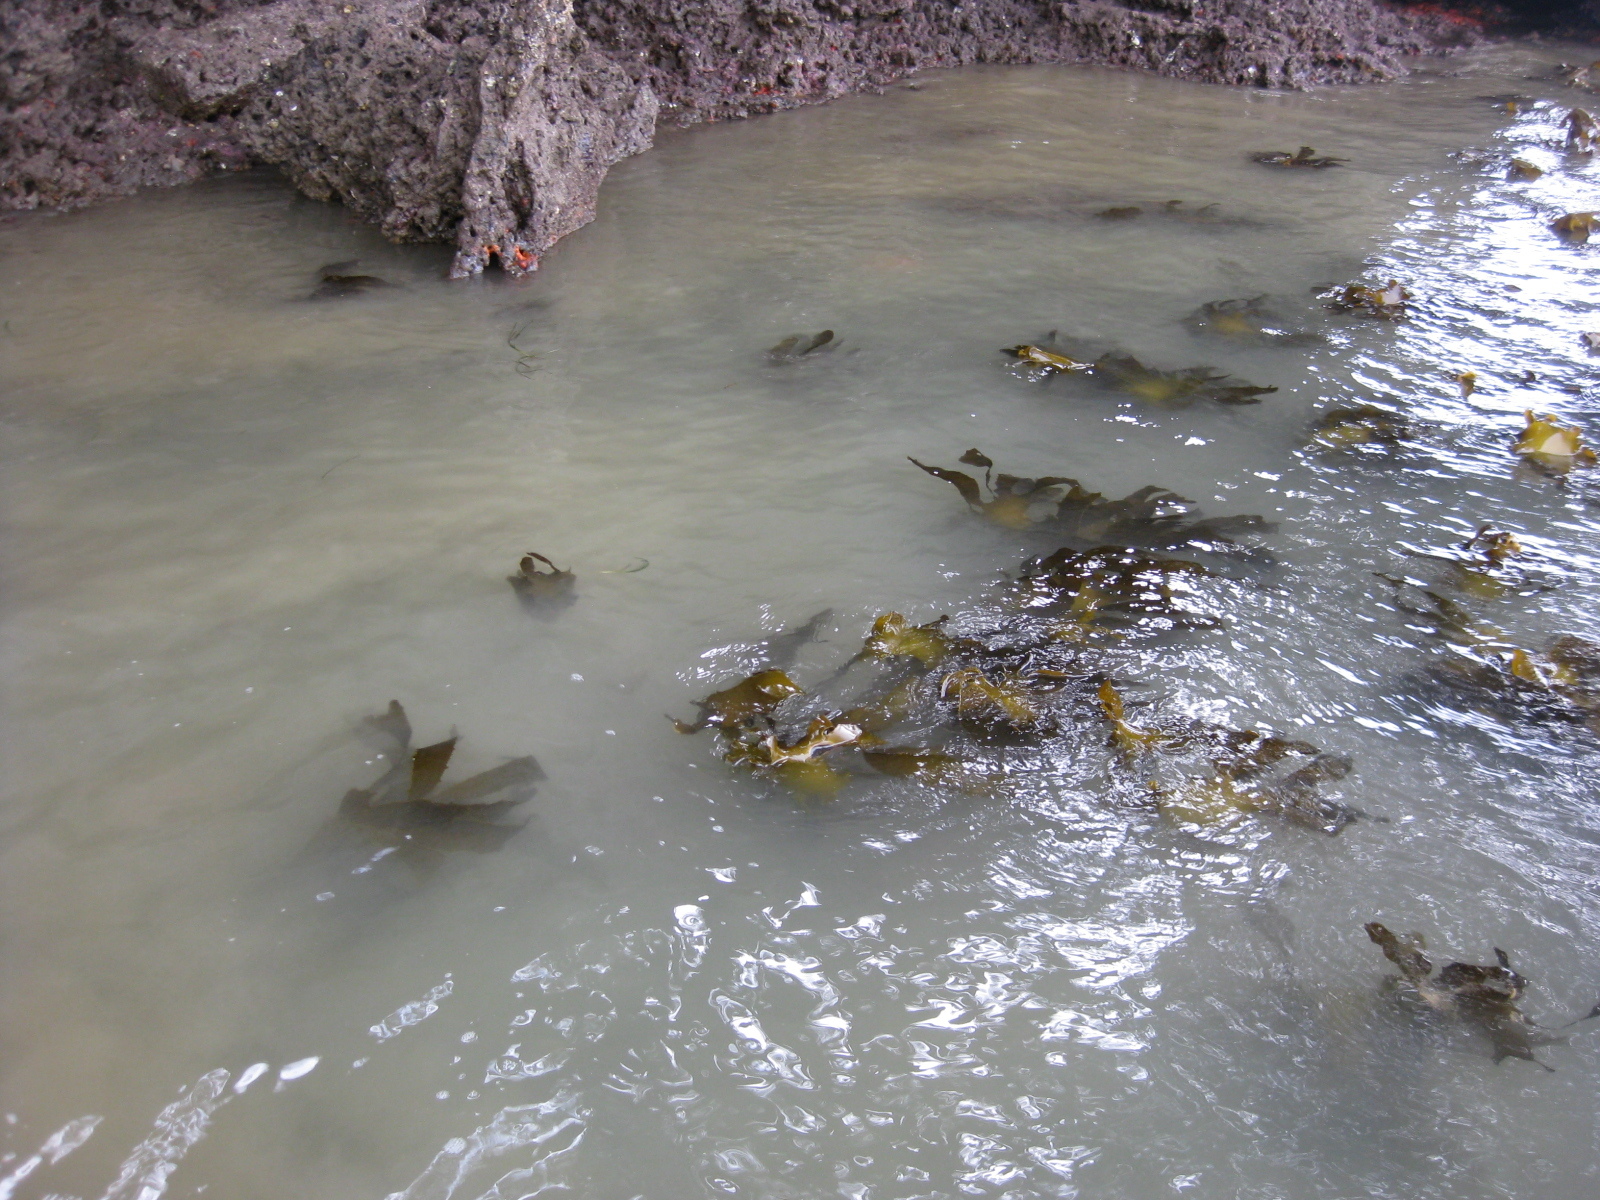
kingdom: Chromista
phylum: Ochrophyta
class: Phaeophyceae
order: Laminariales
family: Lessoniaceae
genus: Ecklonia
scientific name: Ecklonia radiata
